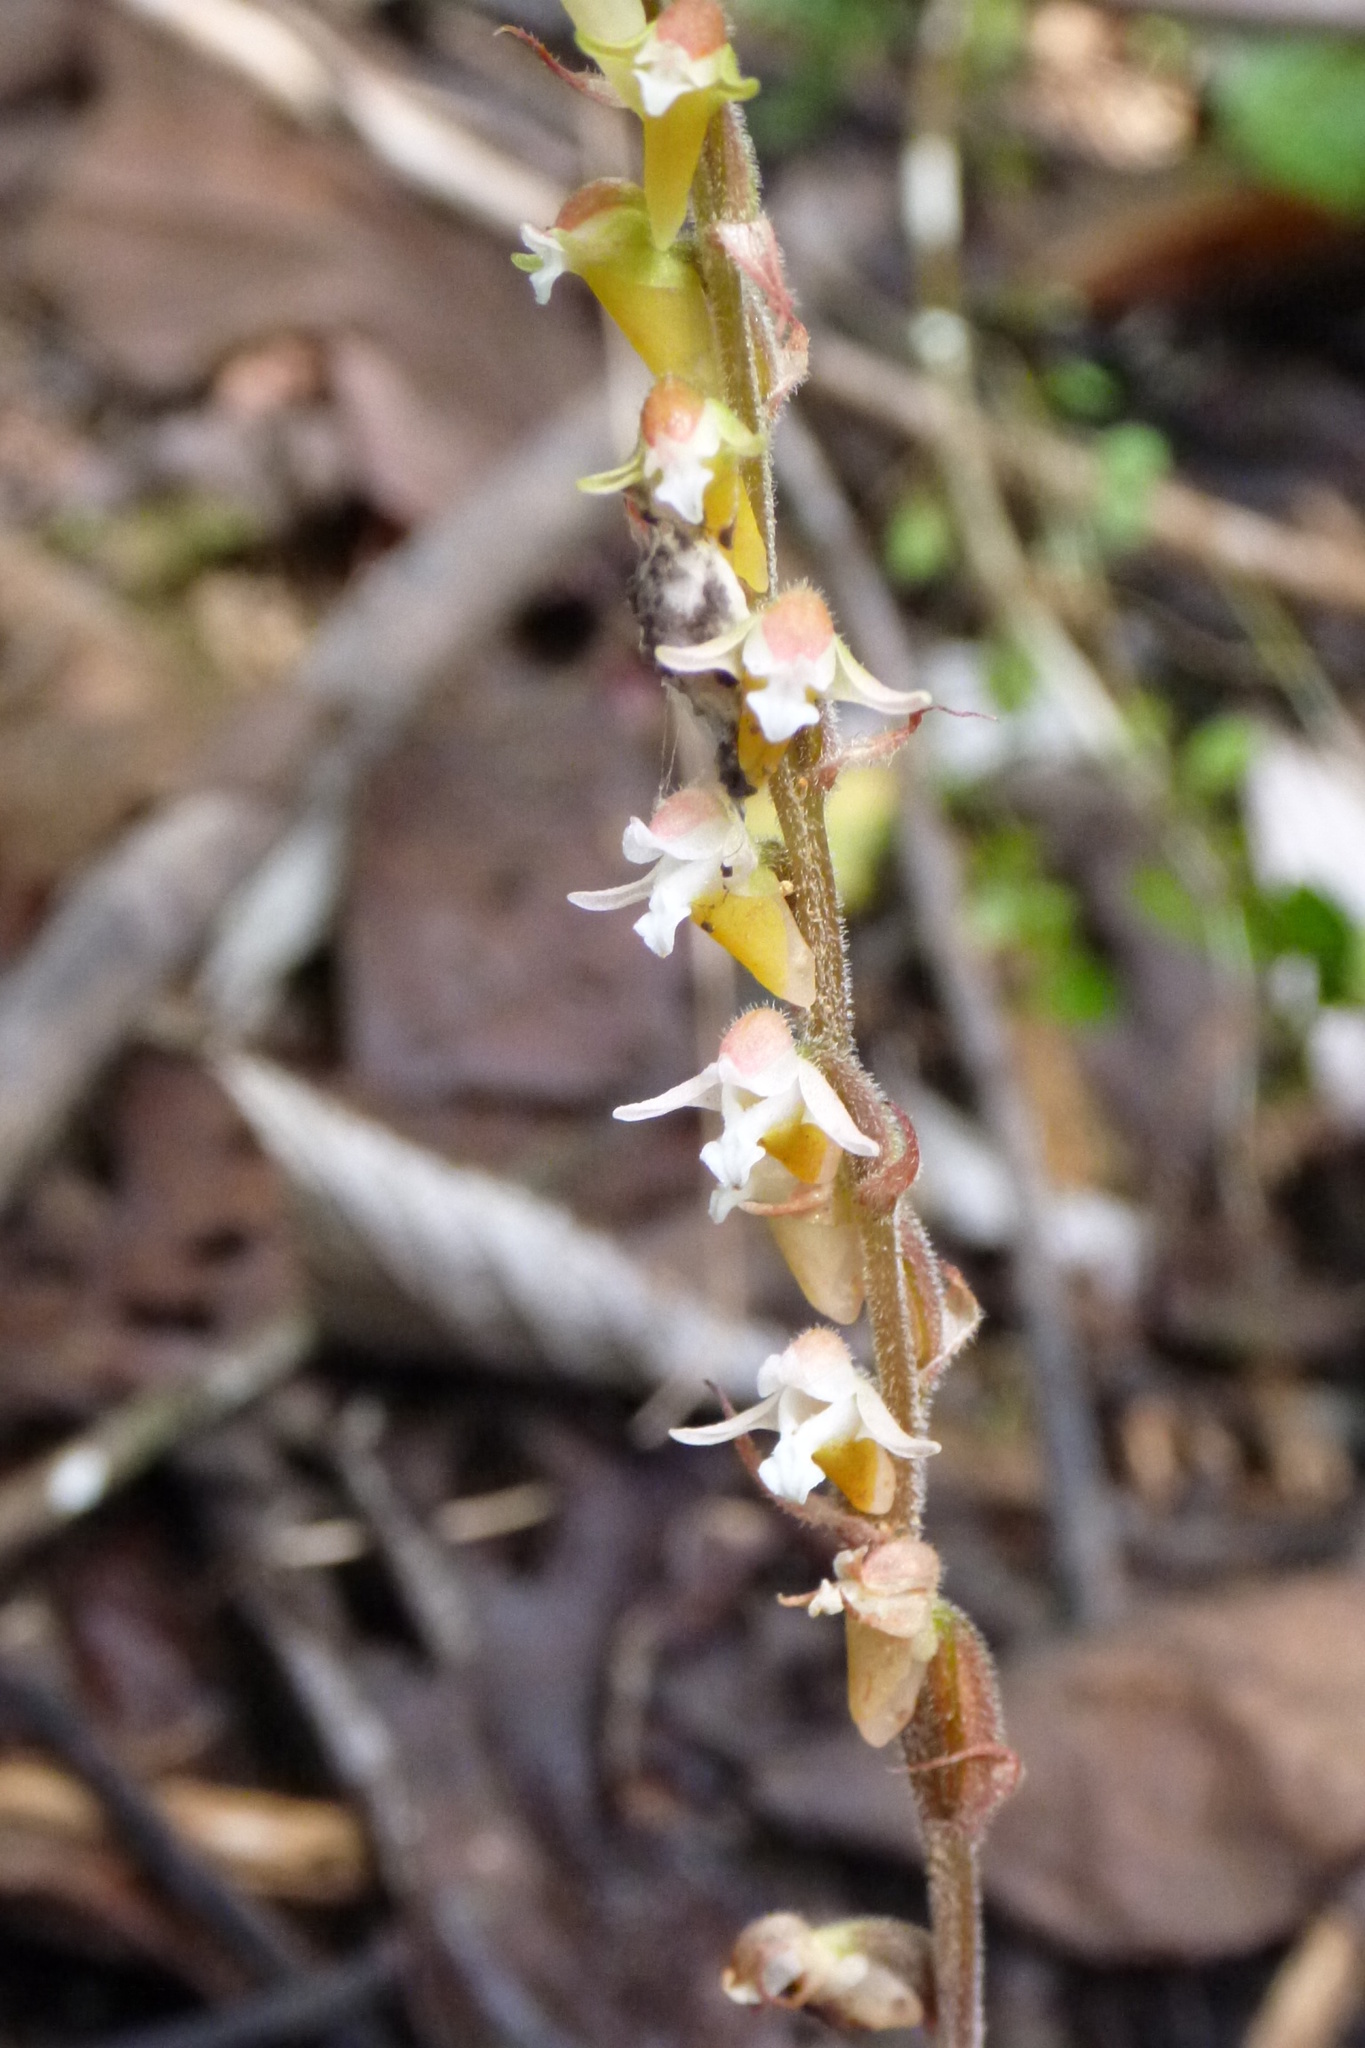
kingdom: Plantae
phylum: Tracheophyta
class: Liliopsida
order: Asparagales
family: Orchidaceae
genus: Eurycentrum
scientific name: Eurycentrum obscurum
